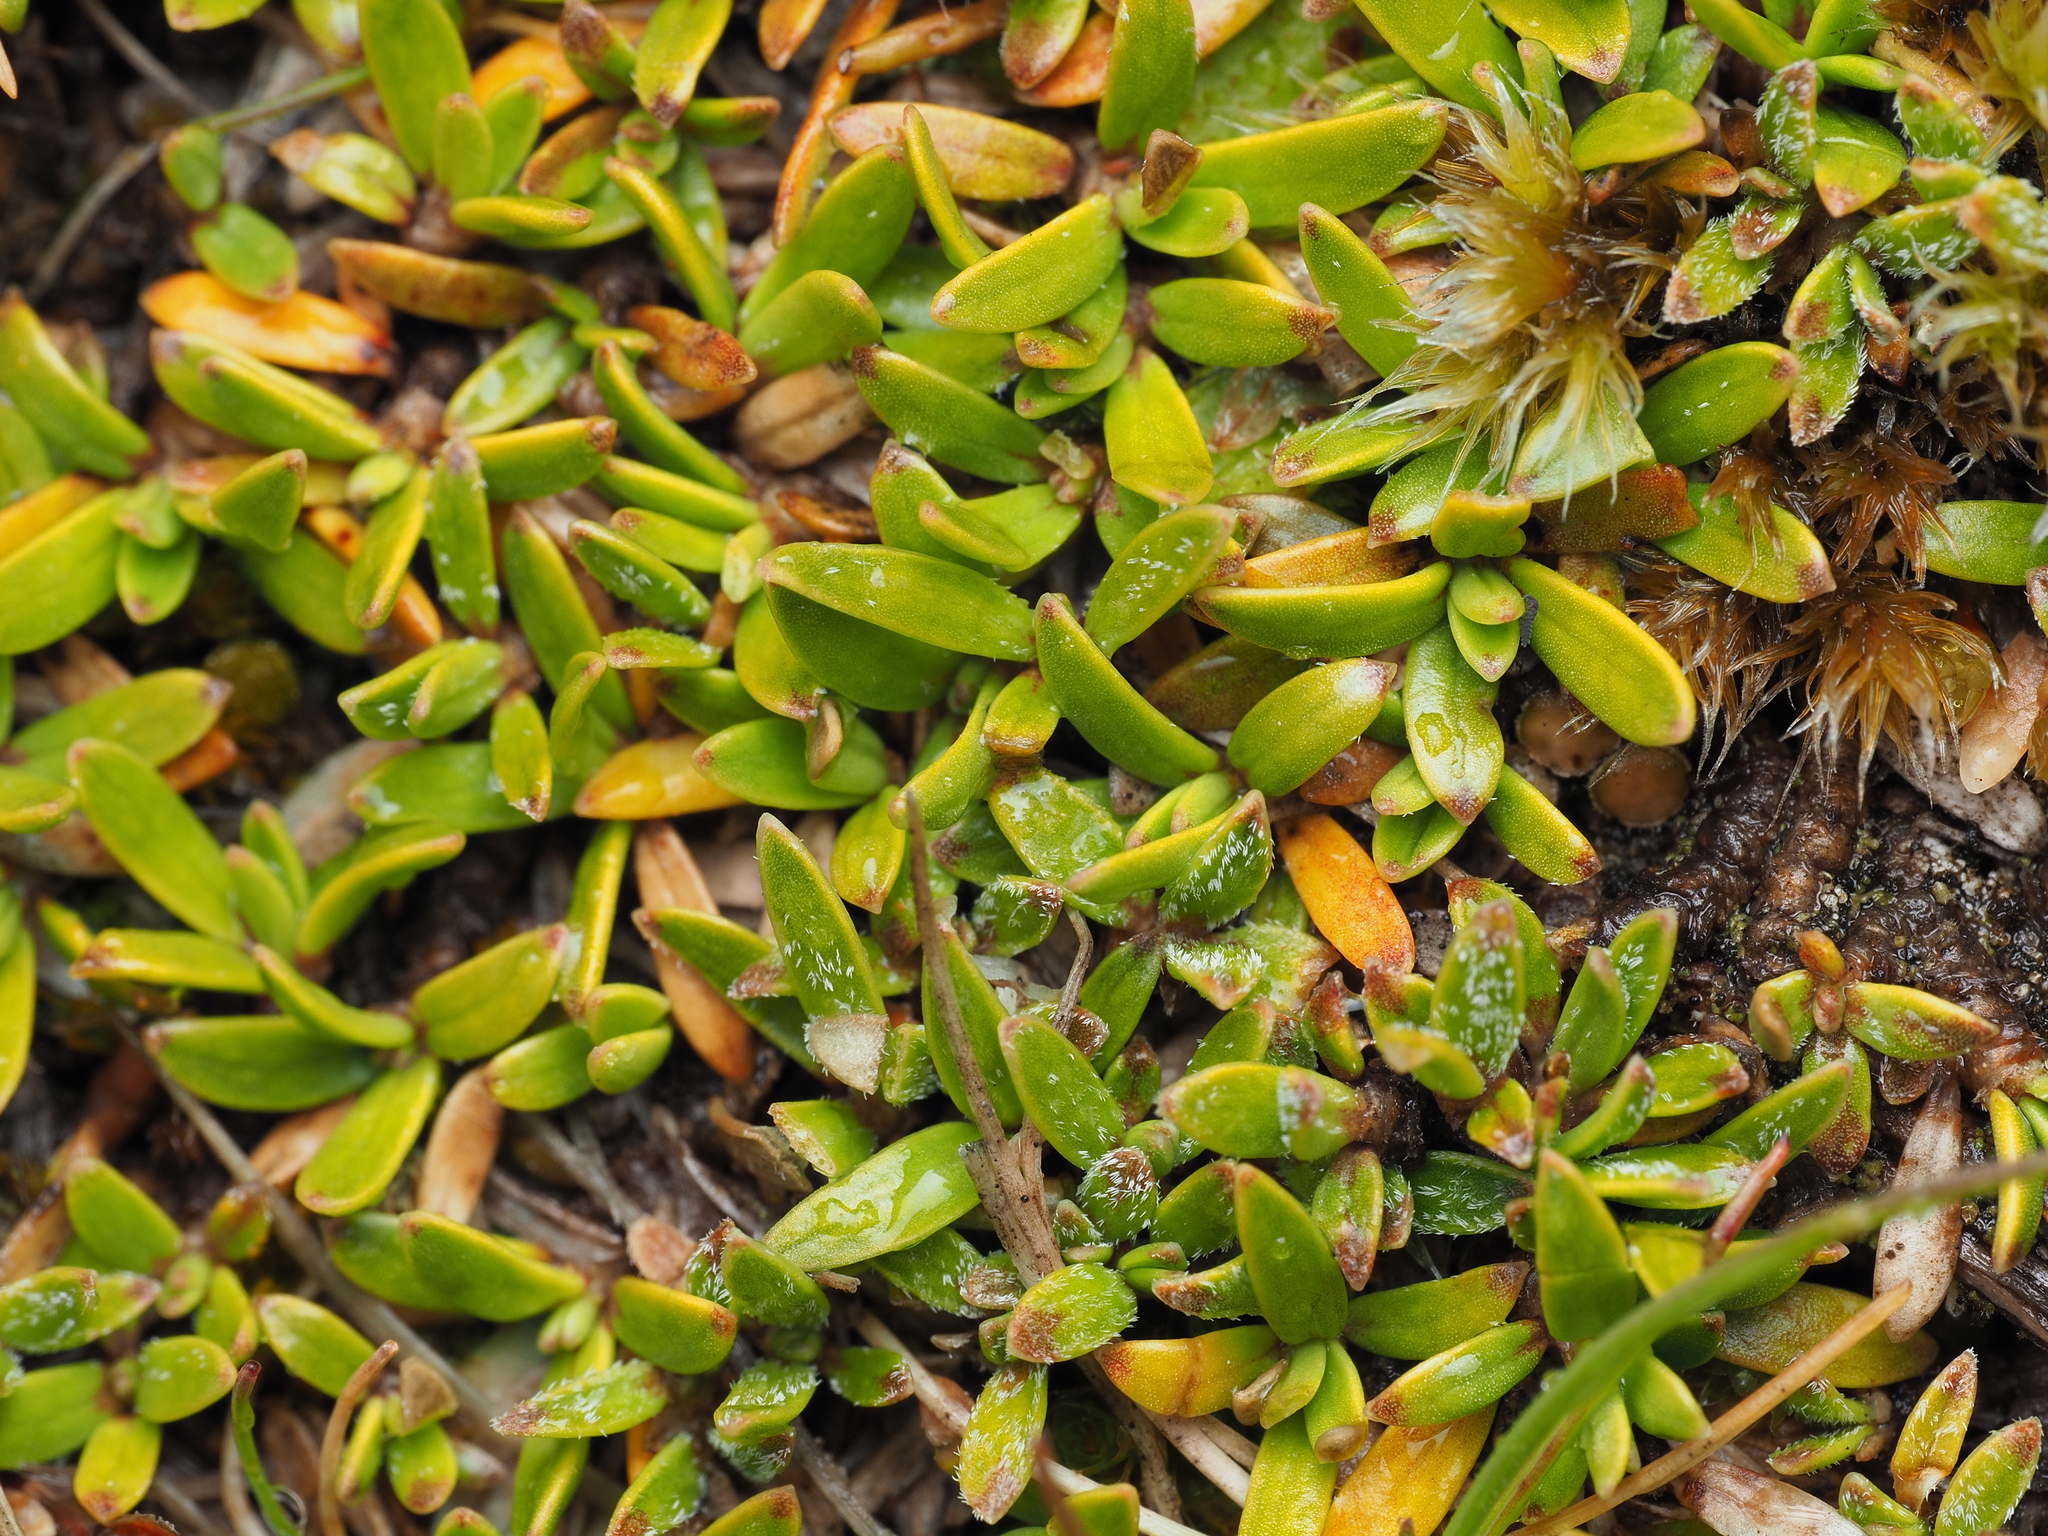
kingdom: Plantae
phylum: Tracheophyta
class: Magnoliopsida
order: Gentianales
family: Rubiaceae
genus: Coprosma
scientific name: Coprosma petriei
